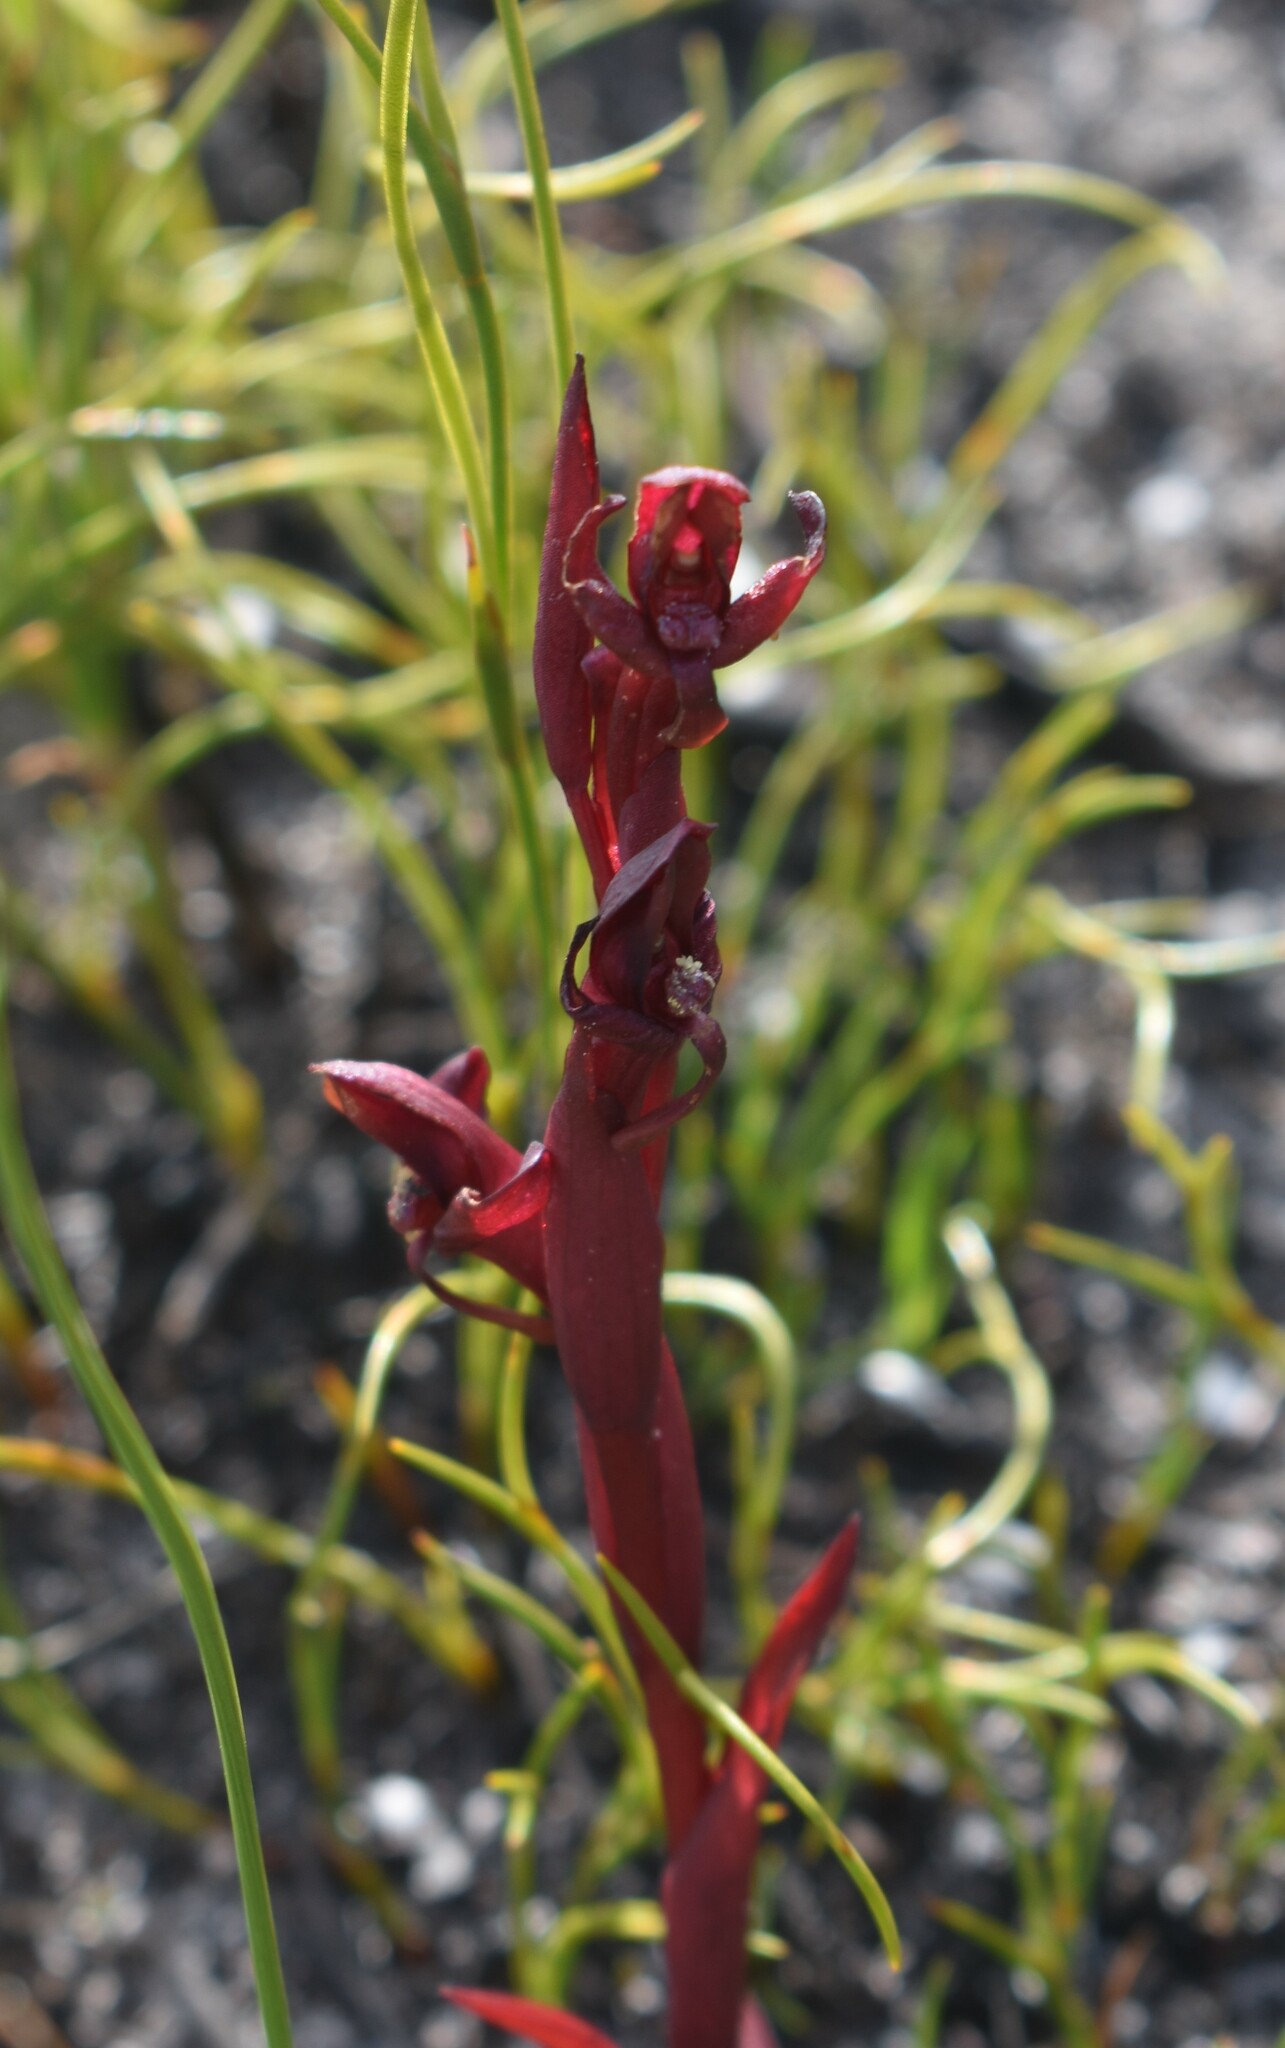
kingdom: Plantae
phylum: Tracheophyta
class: Liliopsida
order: Asparagales
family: Orchidaceae
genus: Disa
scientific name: Disa ophrydea
